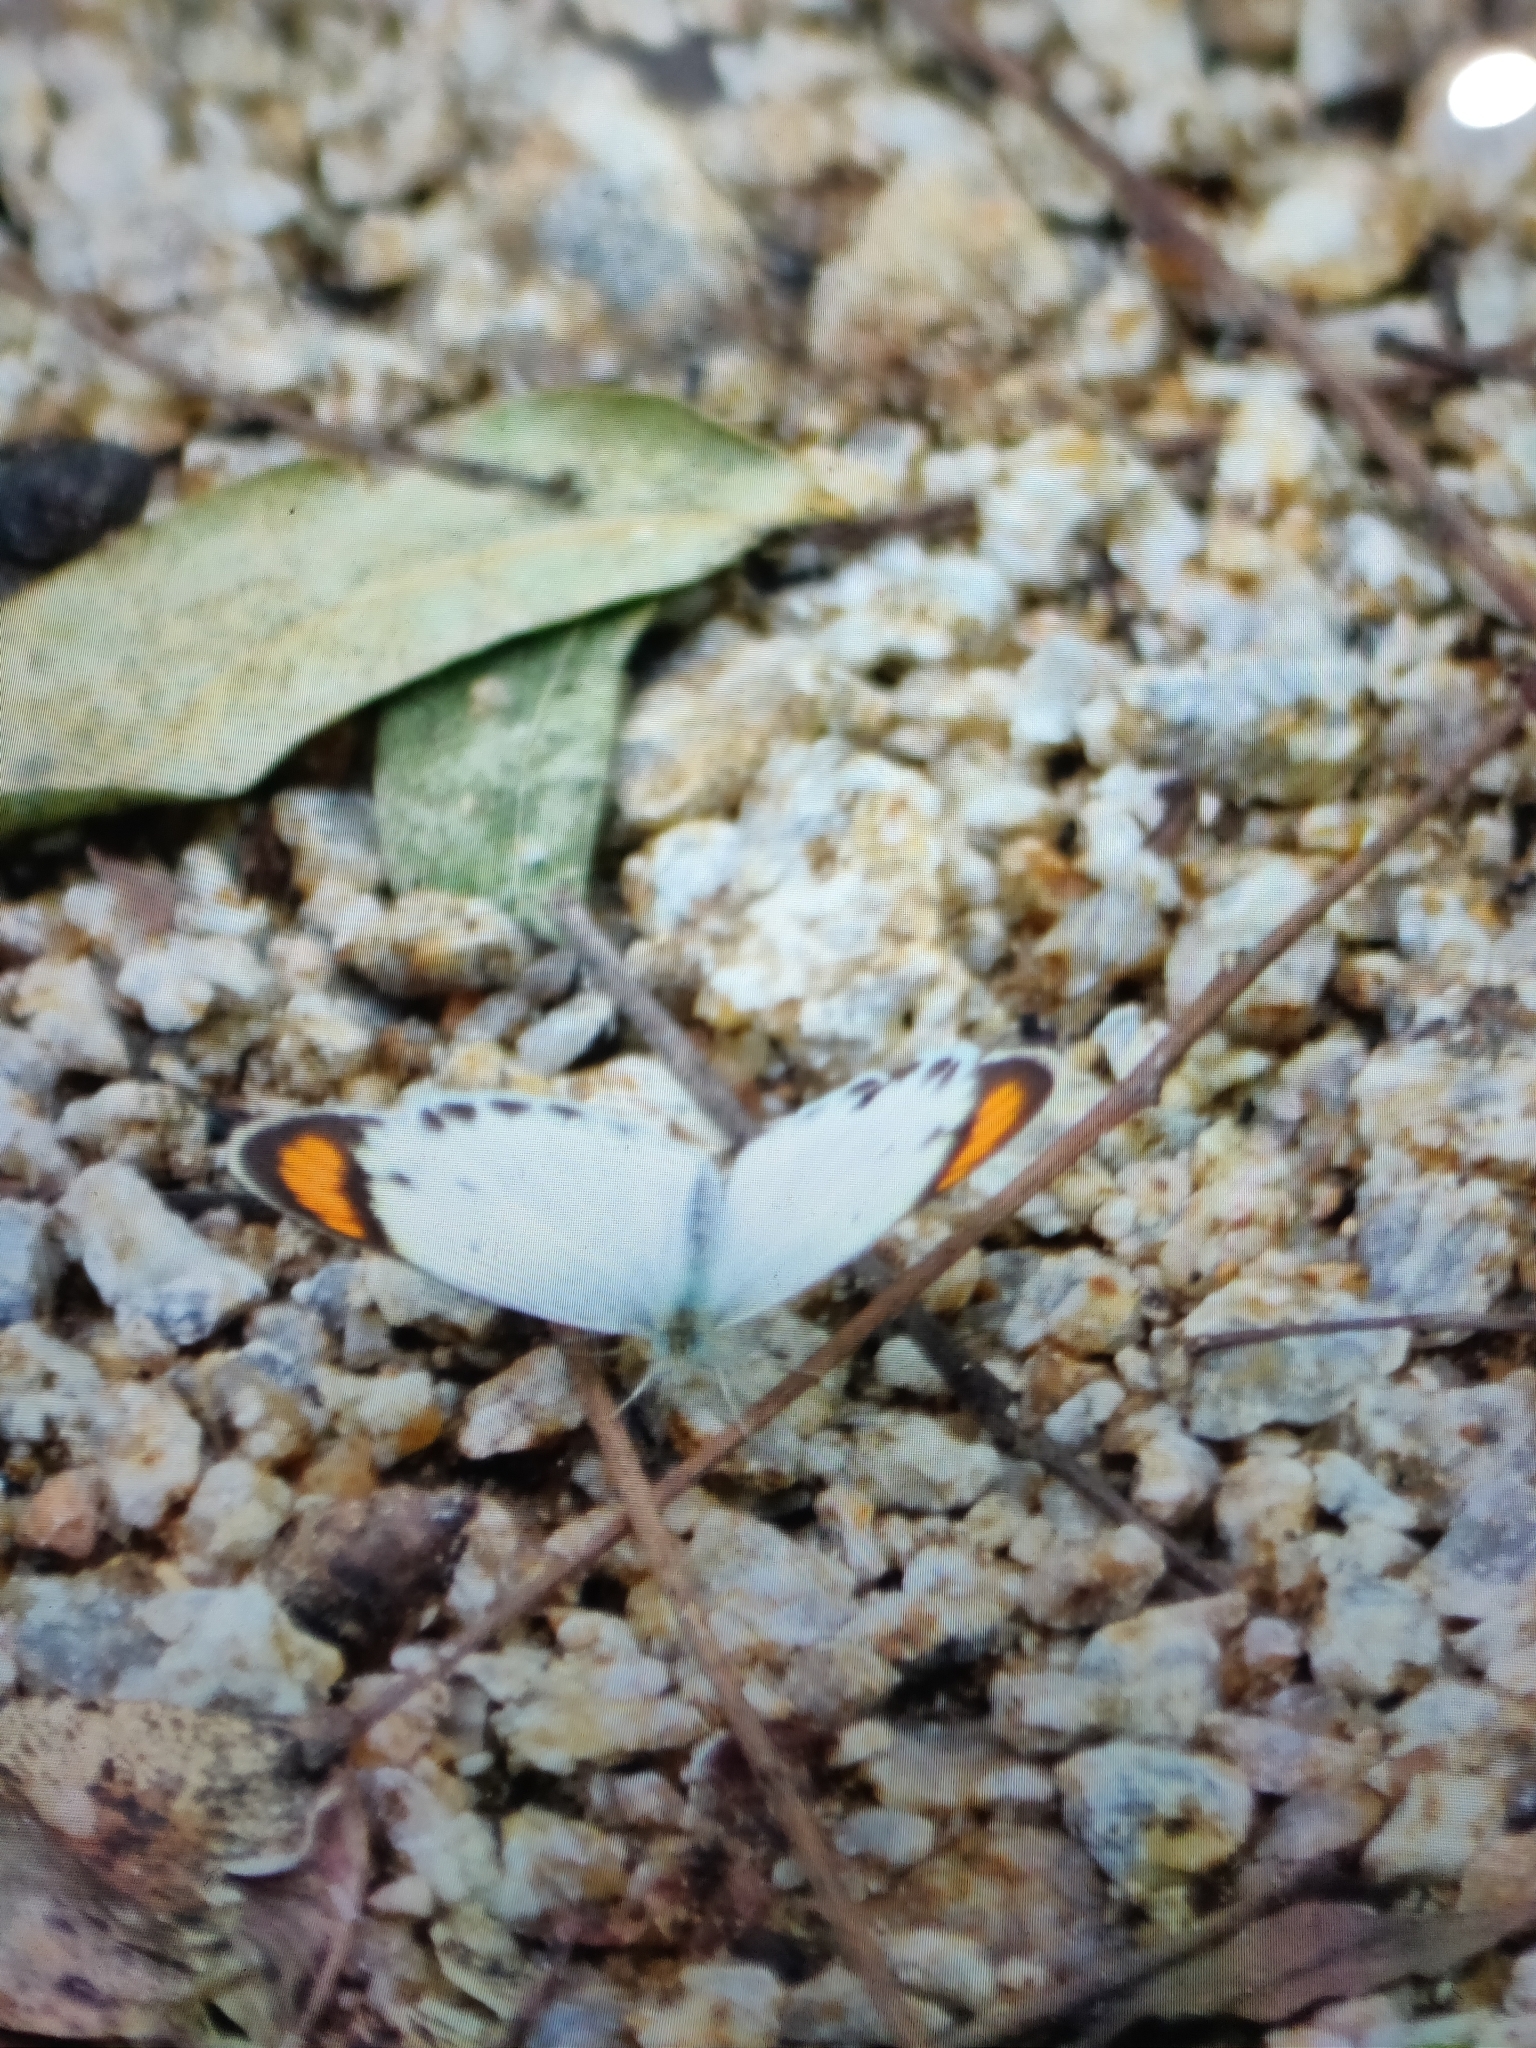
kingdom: Animalia
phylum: Arthropoda
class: Insecta
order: Lepidoptera
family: Pieridae
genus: Colotis
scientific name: Colotis etrida
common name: Little orange tip
